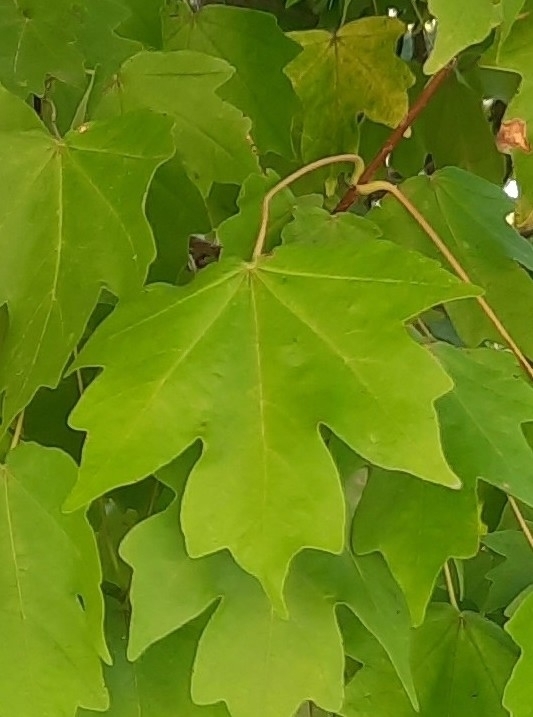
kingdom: Plantae
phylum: Tracheophyta
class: Magnoliopsida
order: Sapindales
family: Sapindaceae
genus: Acer
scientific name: Acer campestre
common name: Field maple
